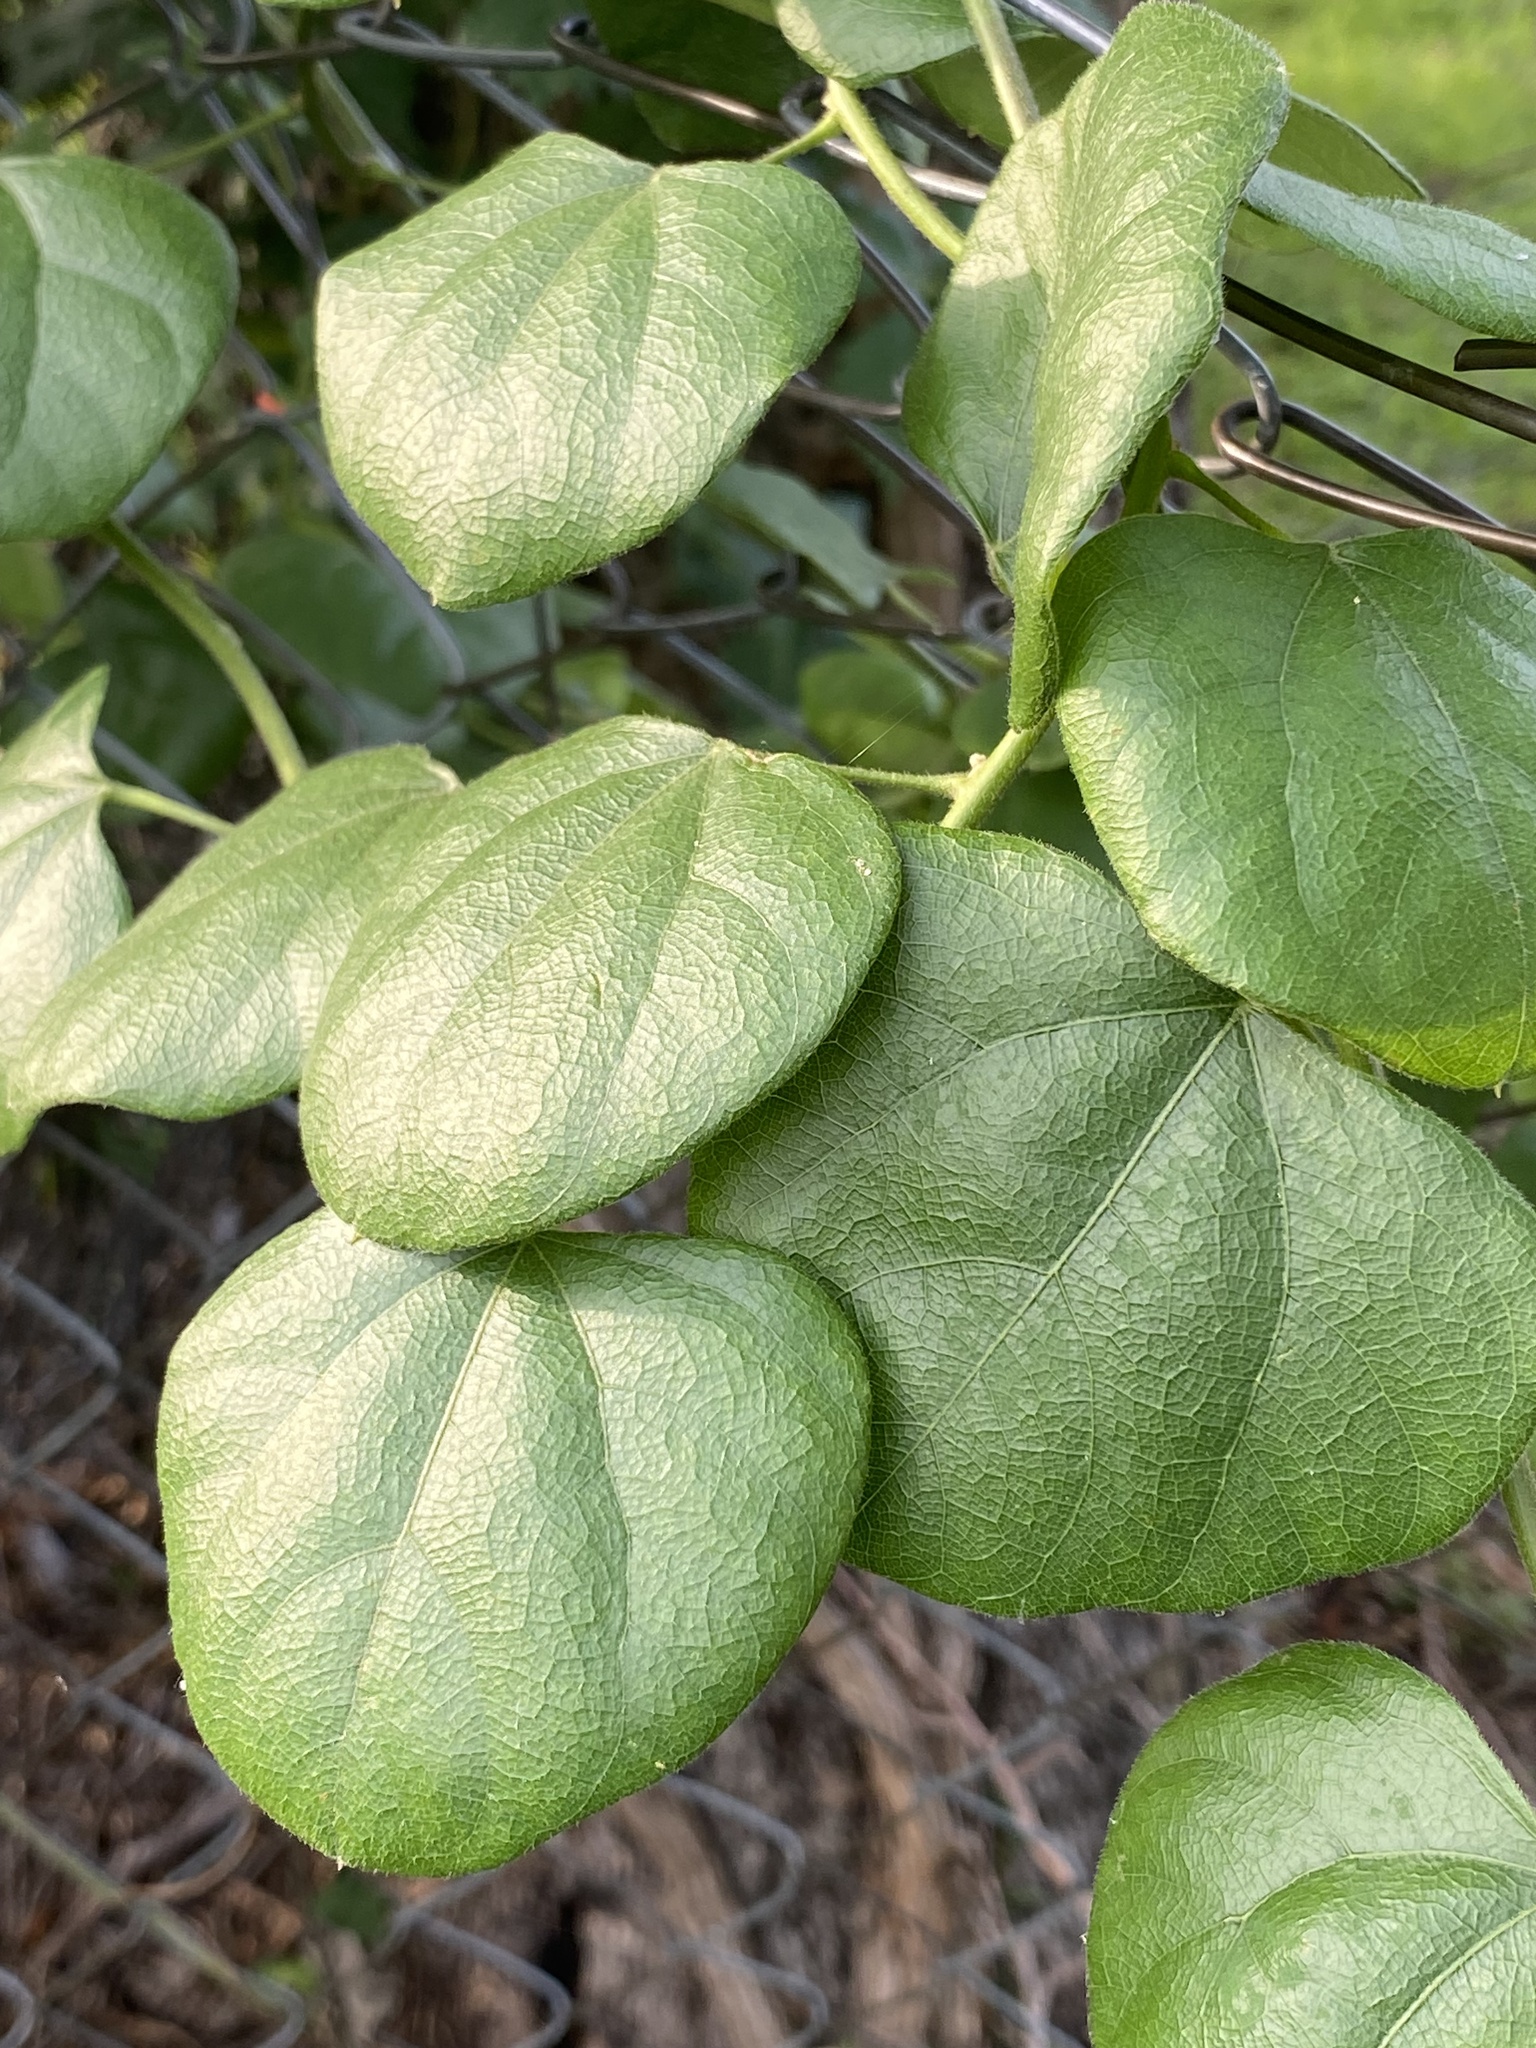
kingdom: Plantae
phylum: Tracheophyta
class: Magnoliopsida
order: Ranunculales
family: Menispermaceae
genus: Cocculus
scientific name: Cocculus carolinus
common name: Carolina moonseed
